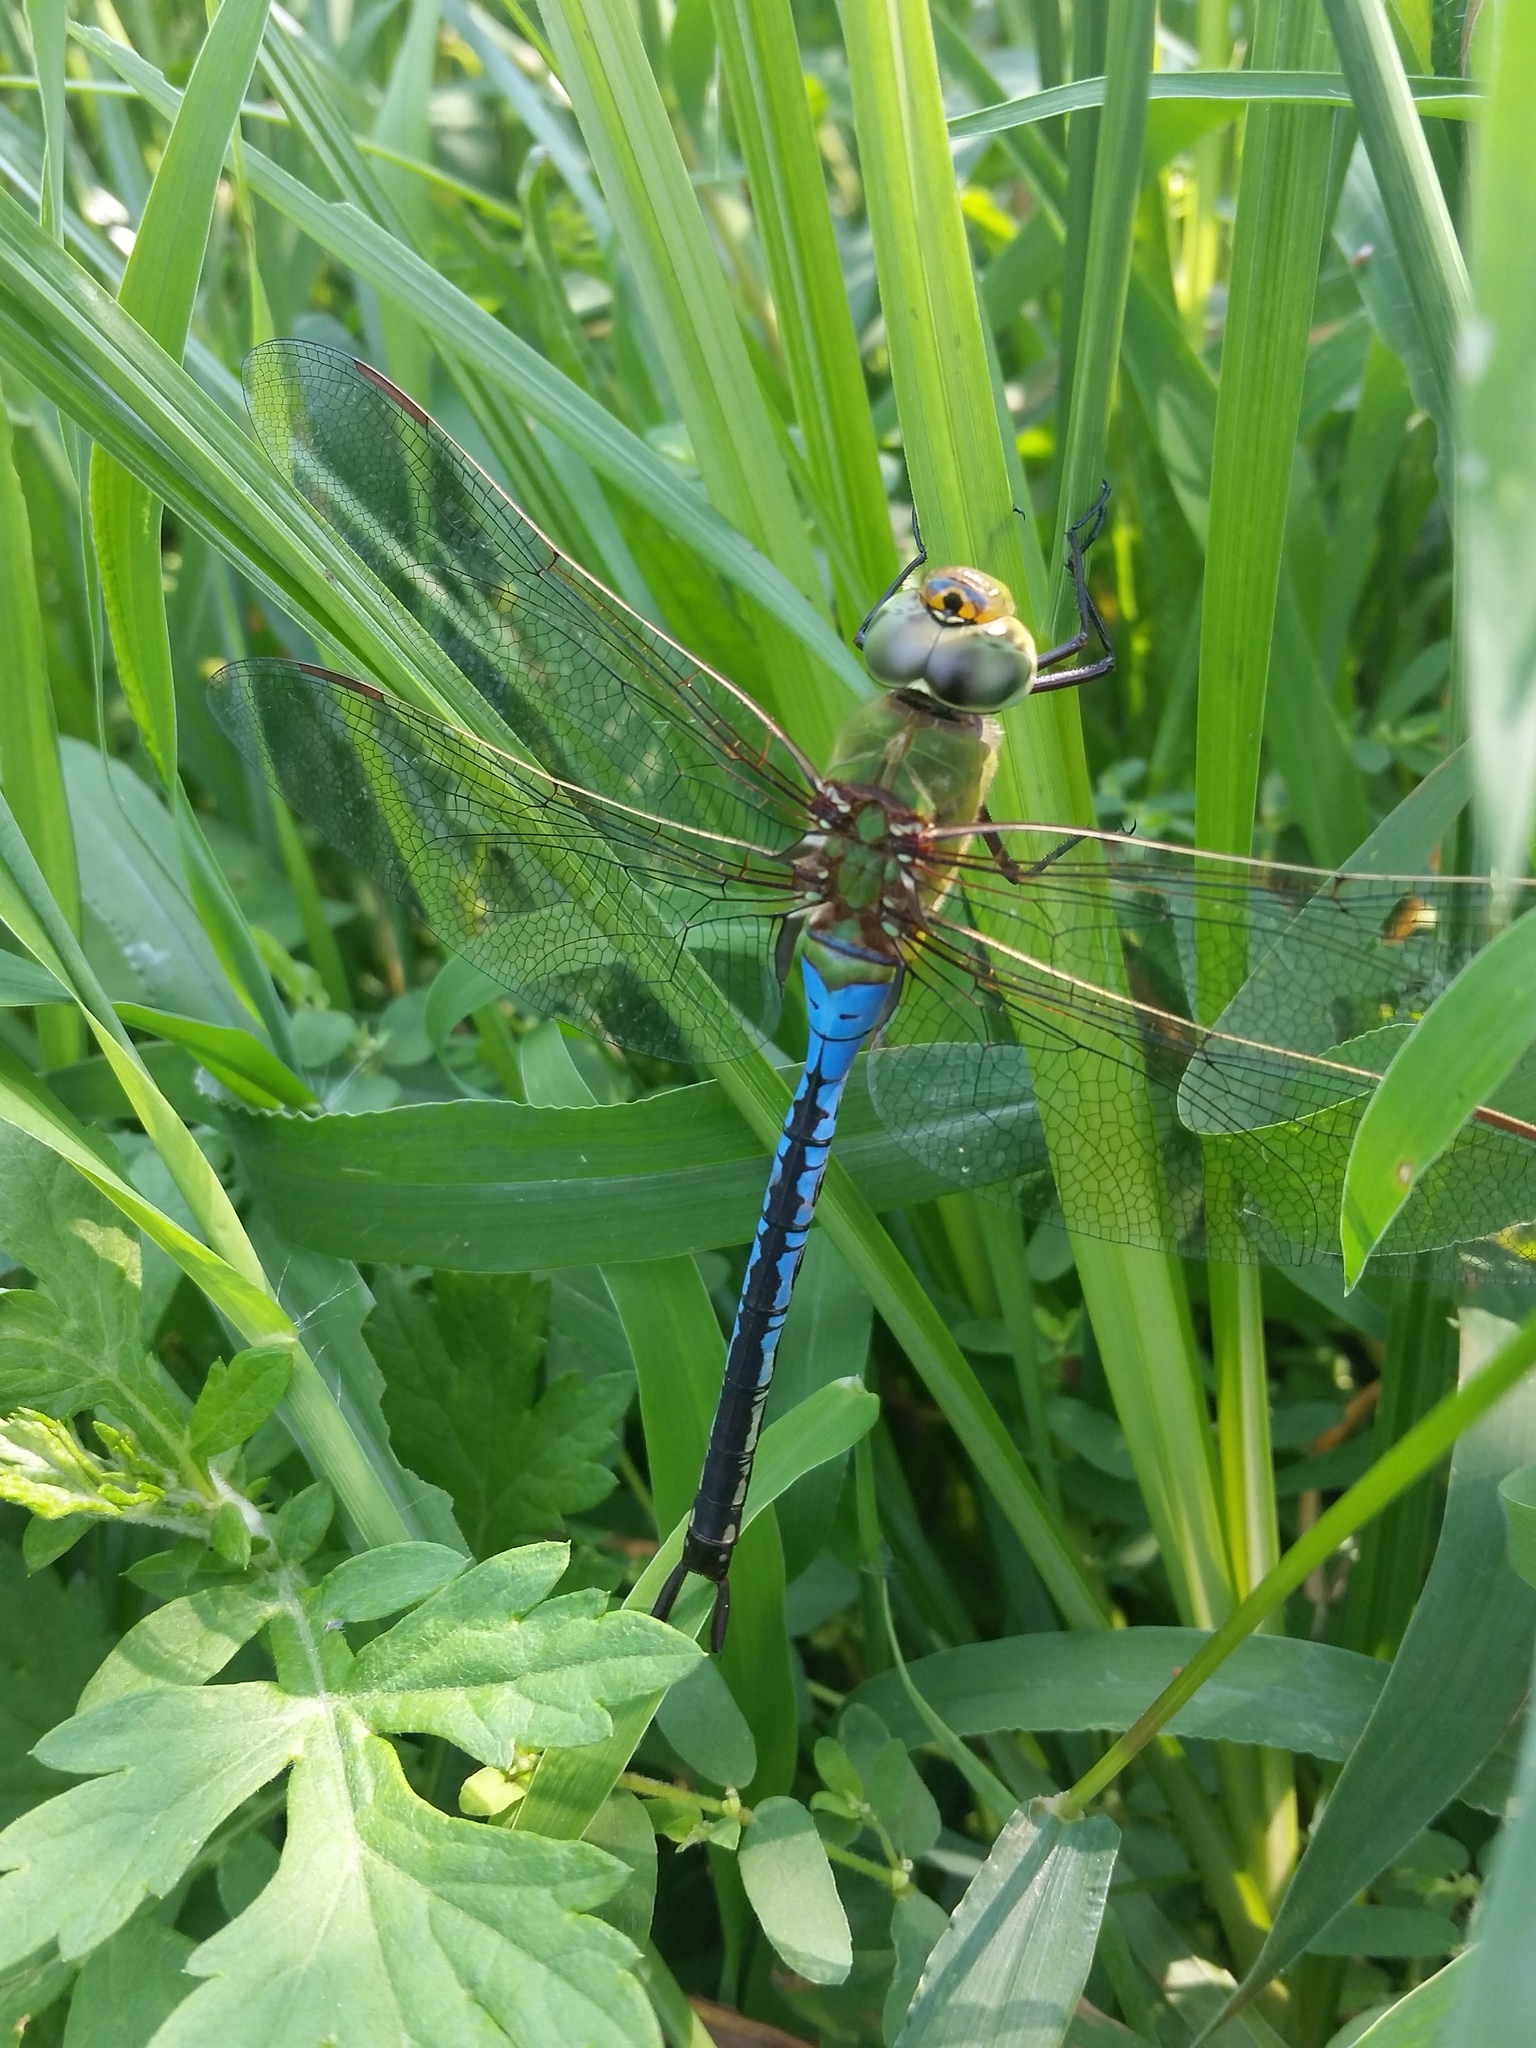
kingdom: Animalia
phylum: Arthropoda
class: Insecta
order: Odonata
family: Aeshnidae
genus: Anax
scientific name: Anax junius
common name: Common green darner
